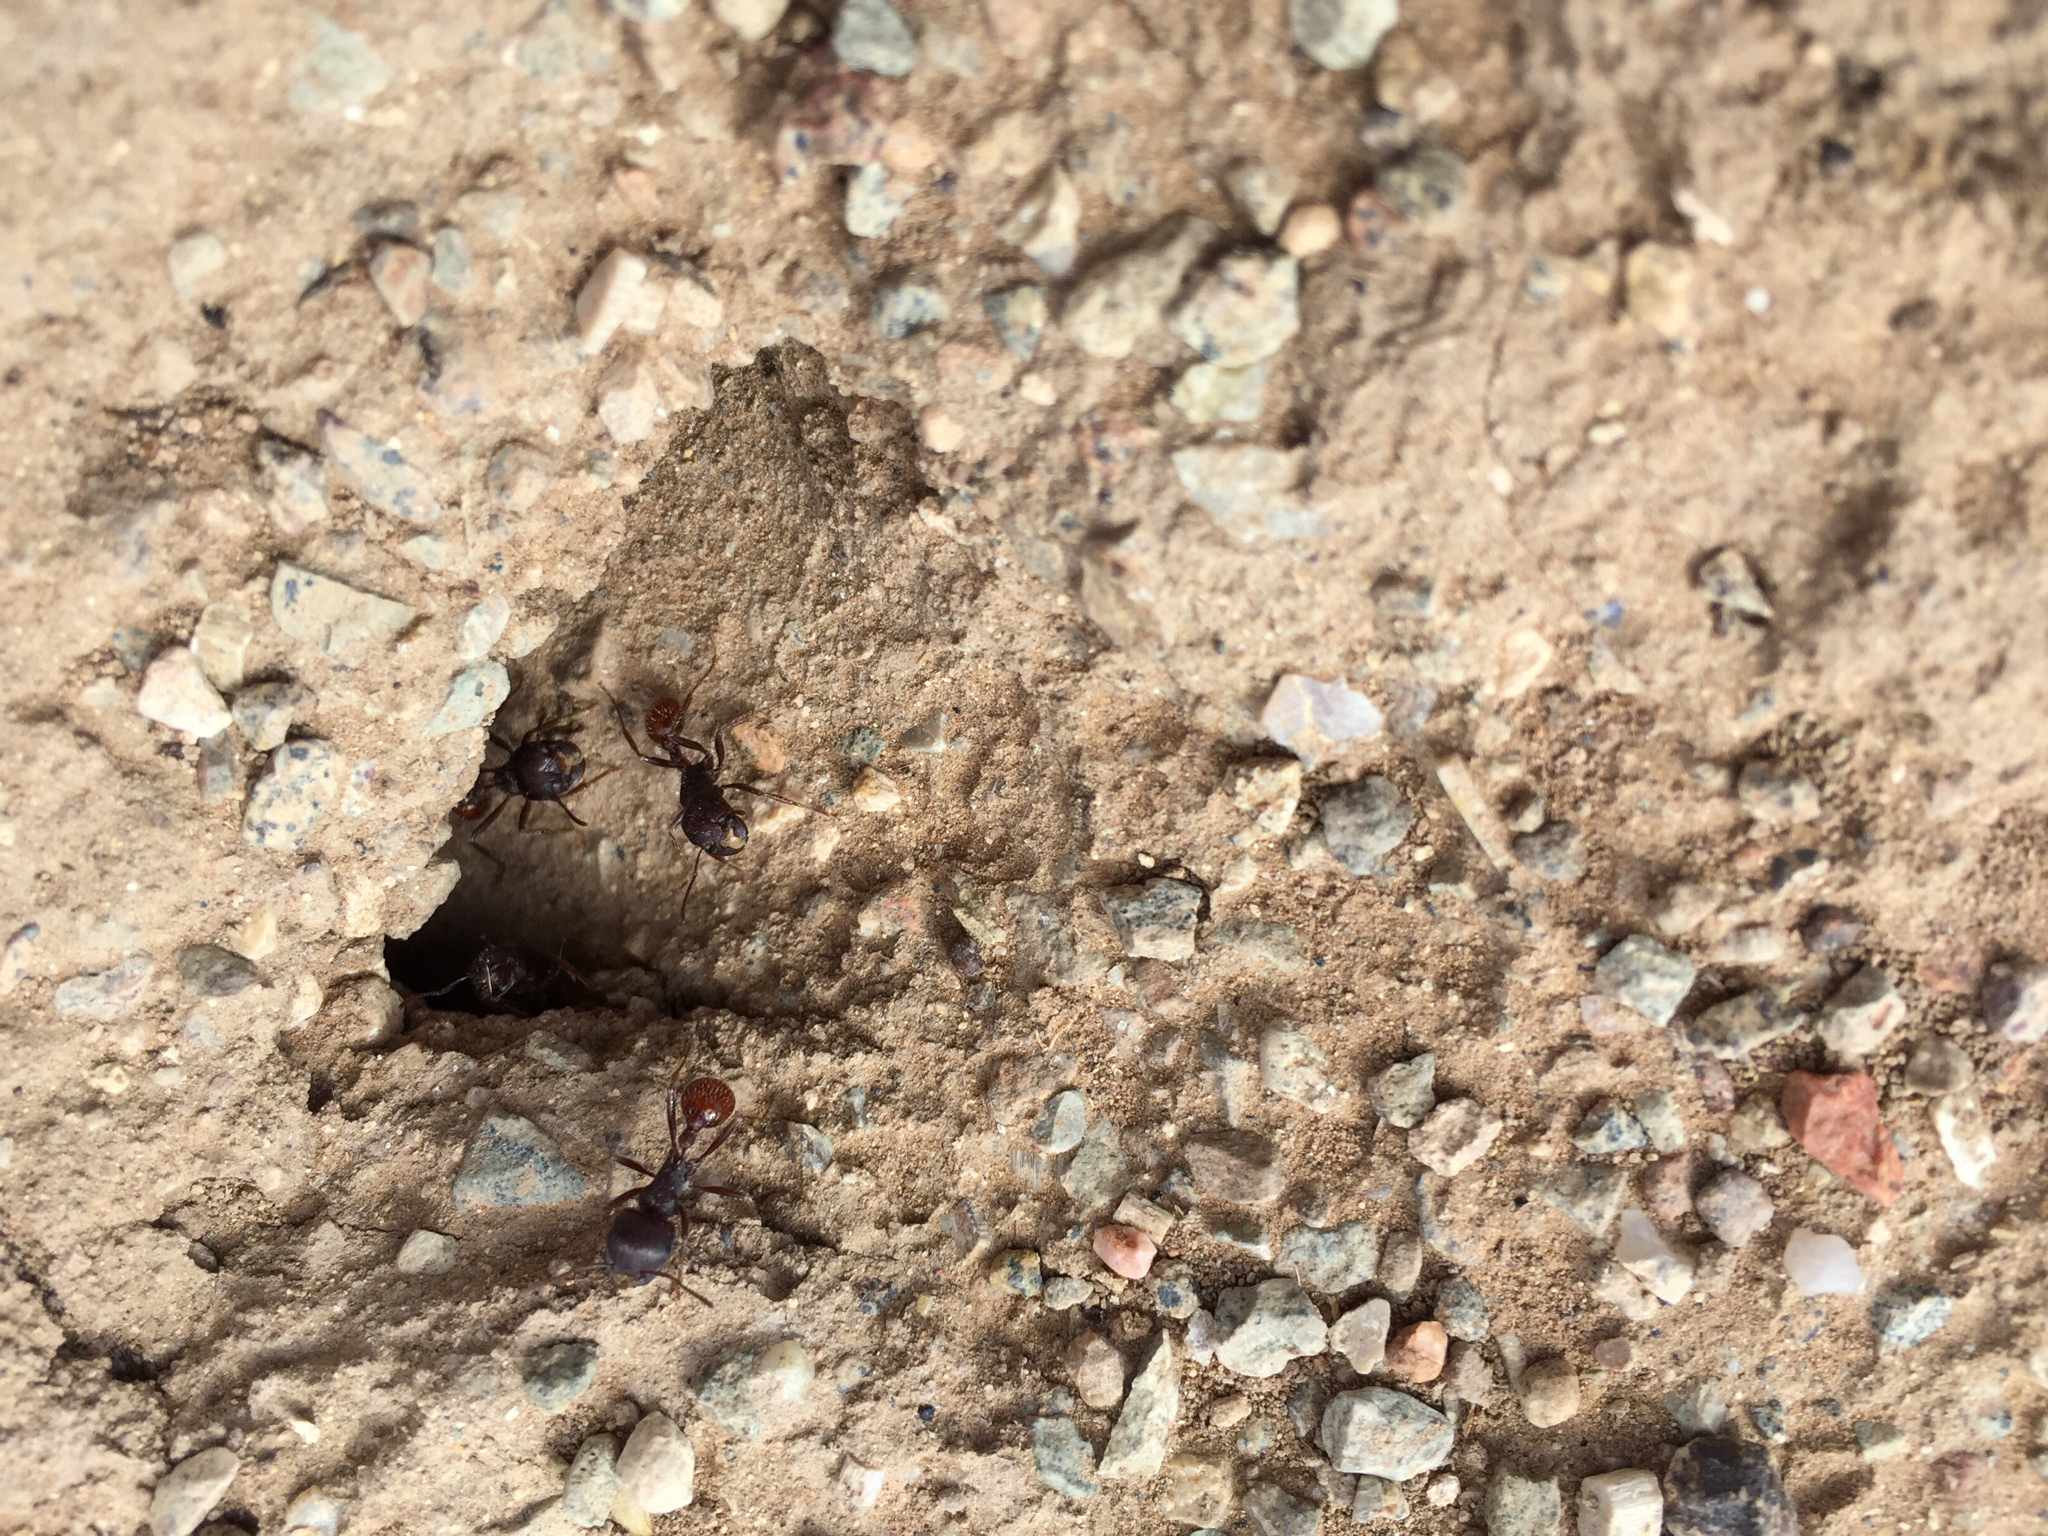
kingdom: Animalia
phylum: Arthropoda
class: Insecta
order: Hymenoptera
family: Formicidae
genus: Pogonomyrmex
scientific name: Pogonomyrmex rugosus
